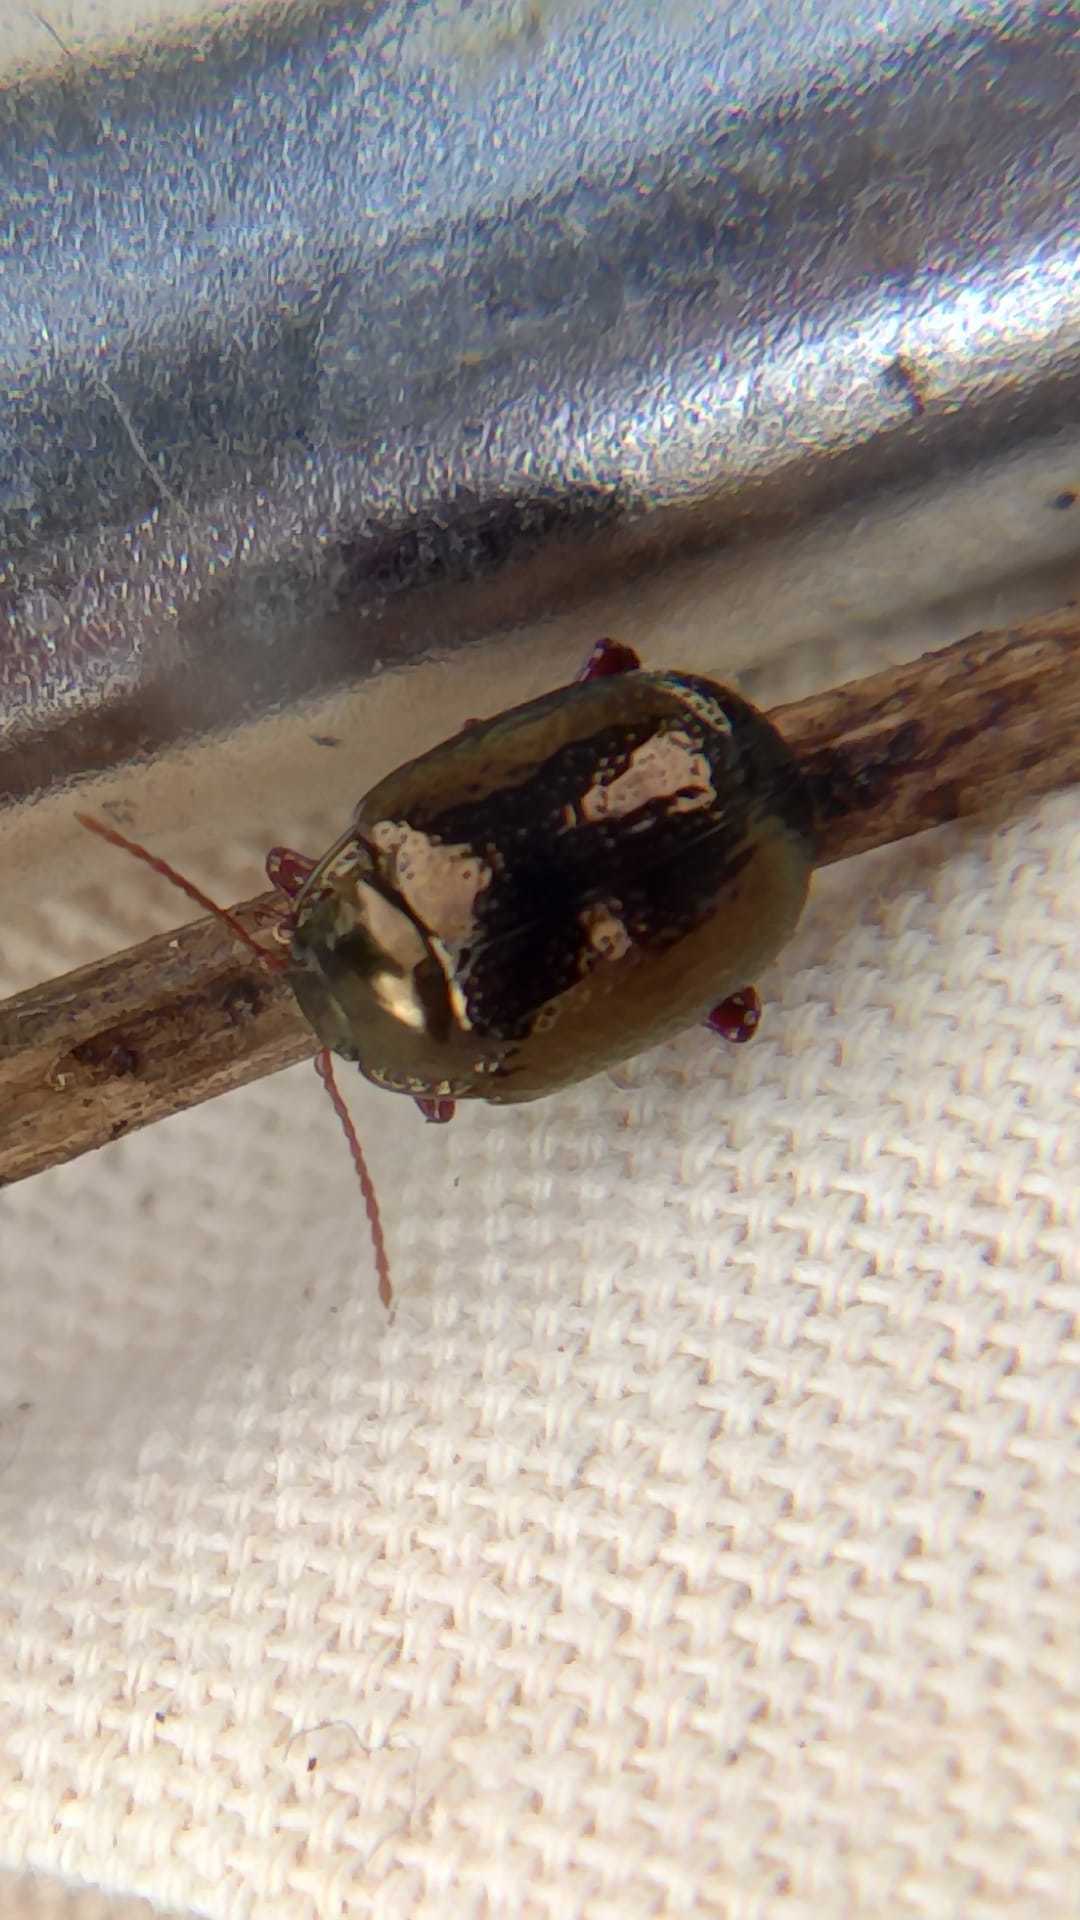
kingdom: Animalia
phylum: Arthropoda
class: Insecta
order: Coleoptera
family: Chrysomelidae
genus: Chrysolina
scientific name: Chrysolina bankii
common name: Leaf beetle
